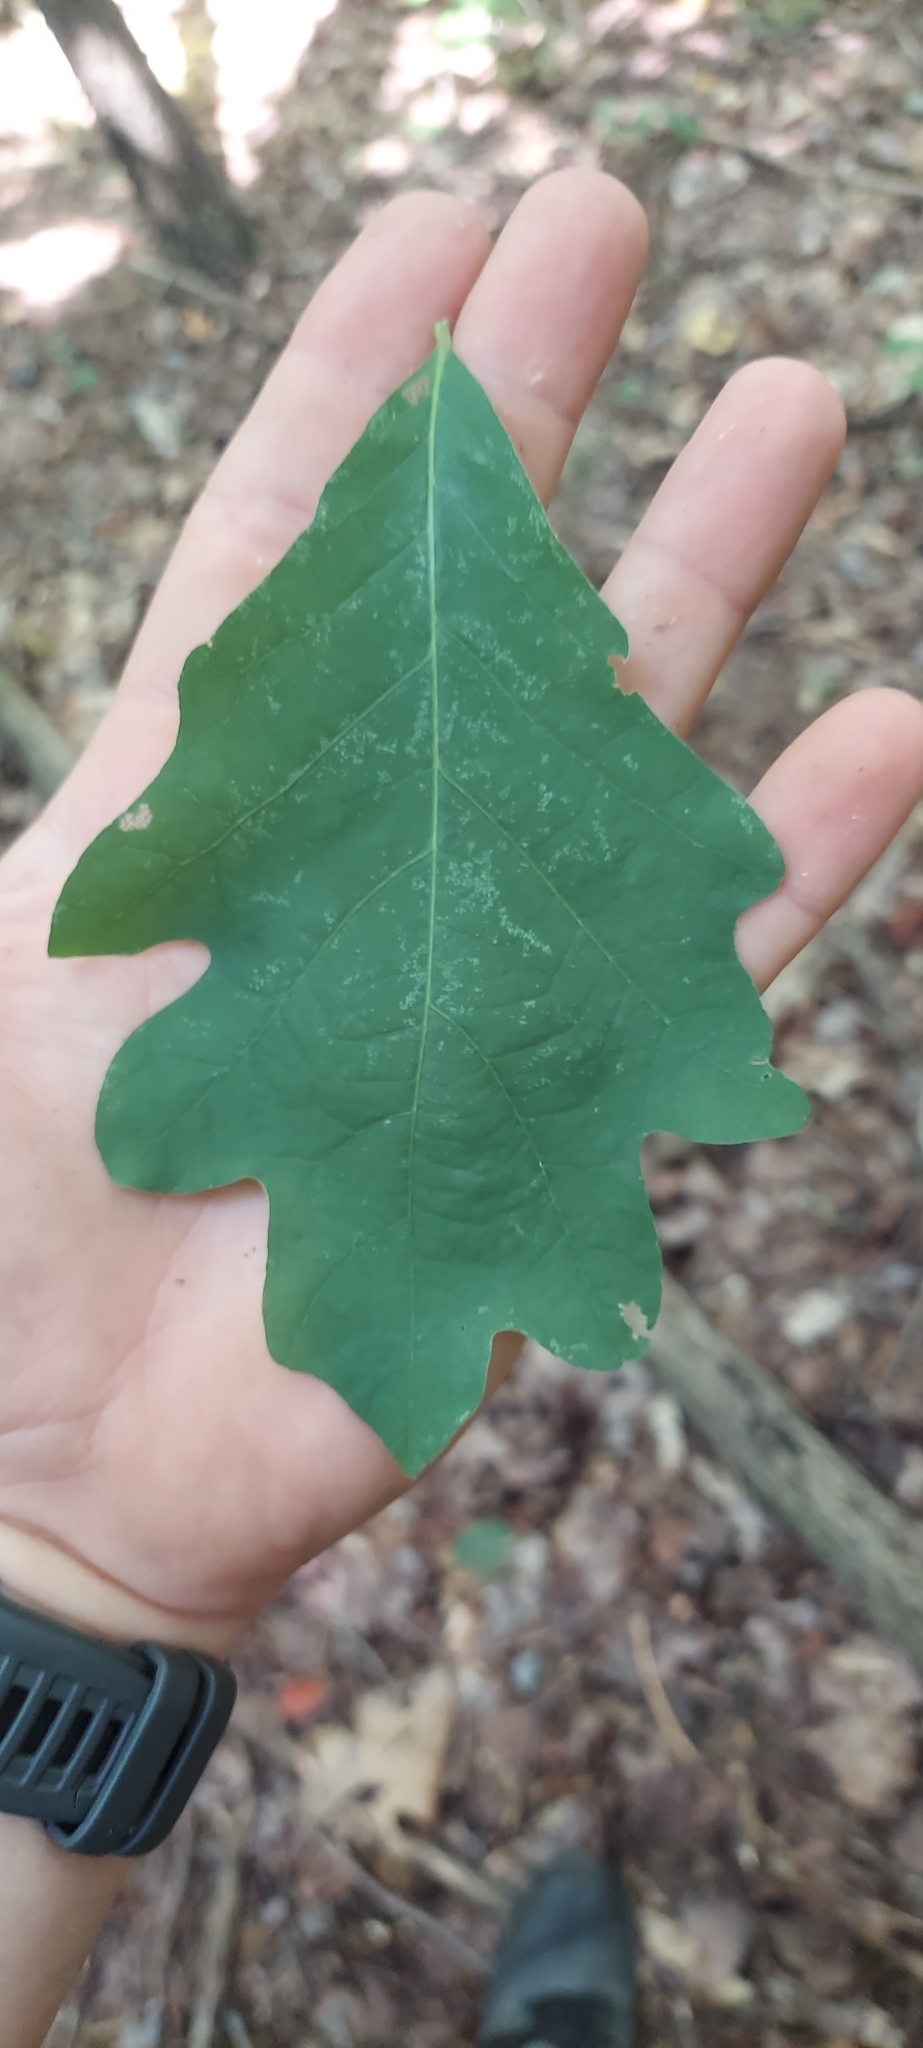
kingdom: Plantae
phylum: Tracheophyta
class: Magnoliopsida
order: Fagales
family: Fagaceae
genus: Quercus
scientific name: Quercus alba
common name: White oak
